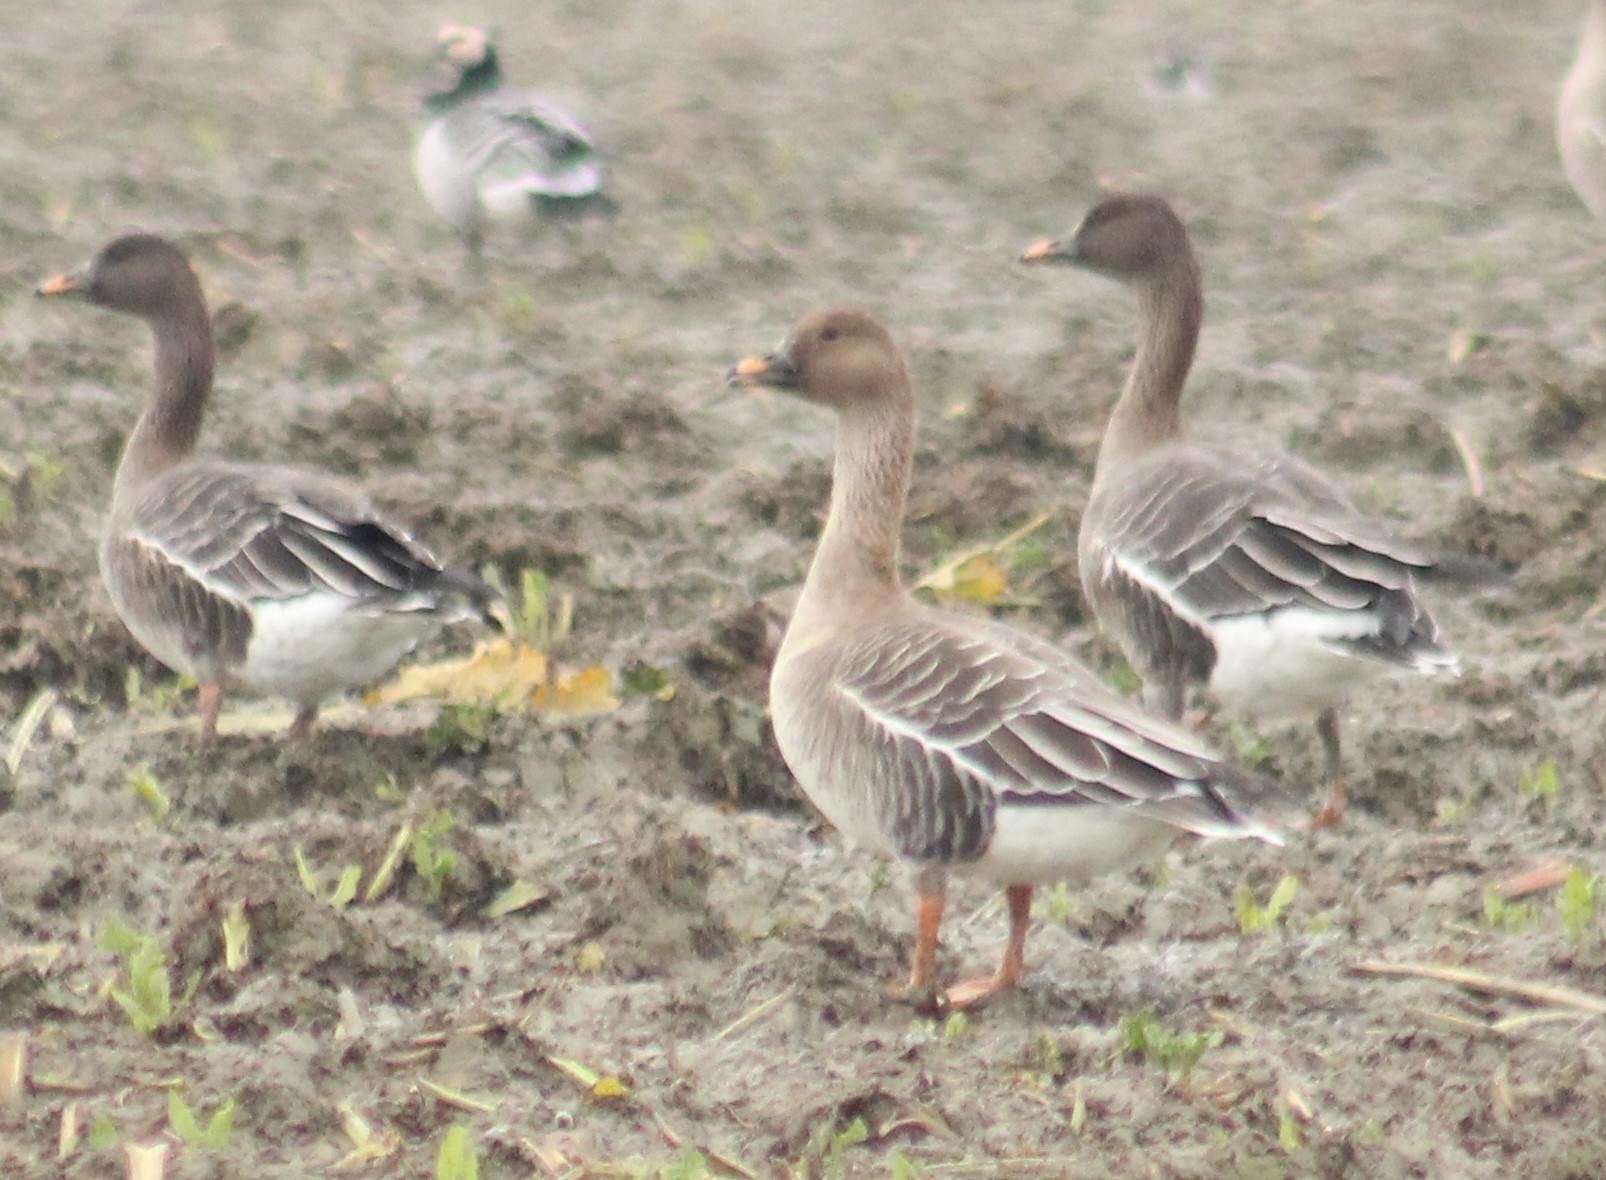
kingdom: Animalia
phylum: Chordata
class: Aves
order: Anseriformes
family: Anatidae
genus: Anser
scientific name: Anser serrirostris
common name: Tundra bean goose
